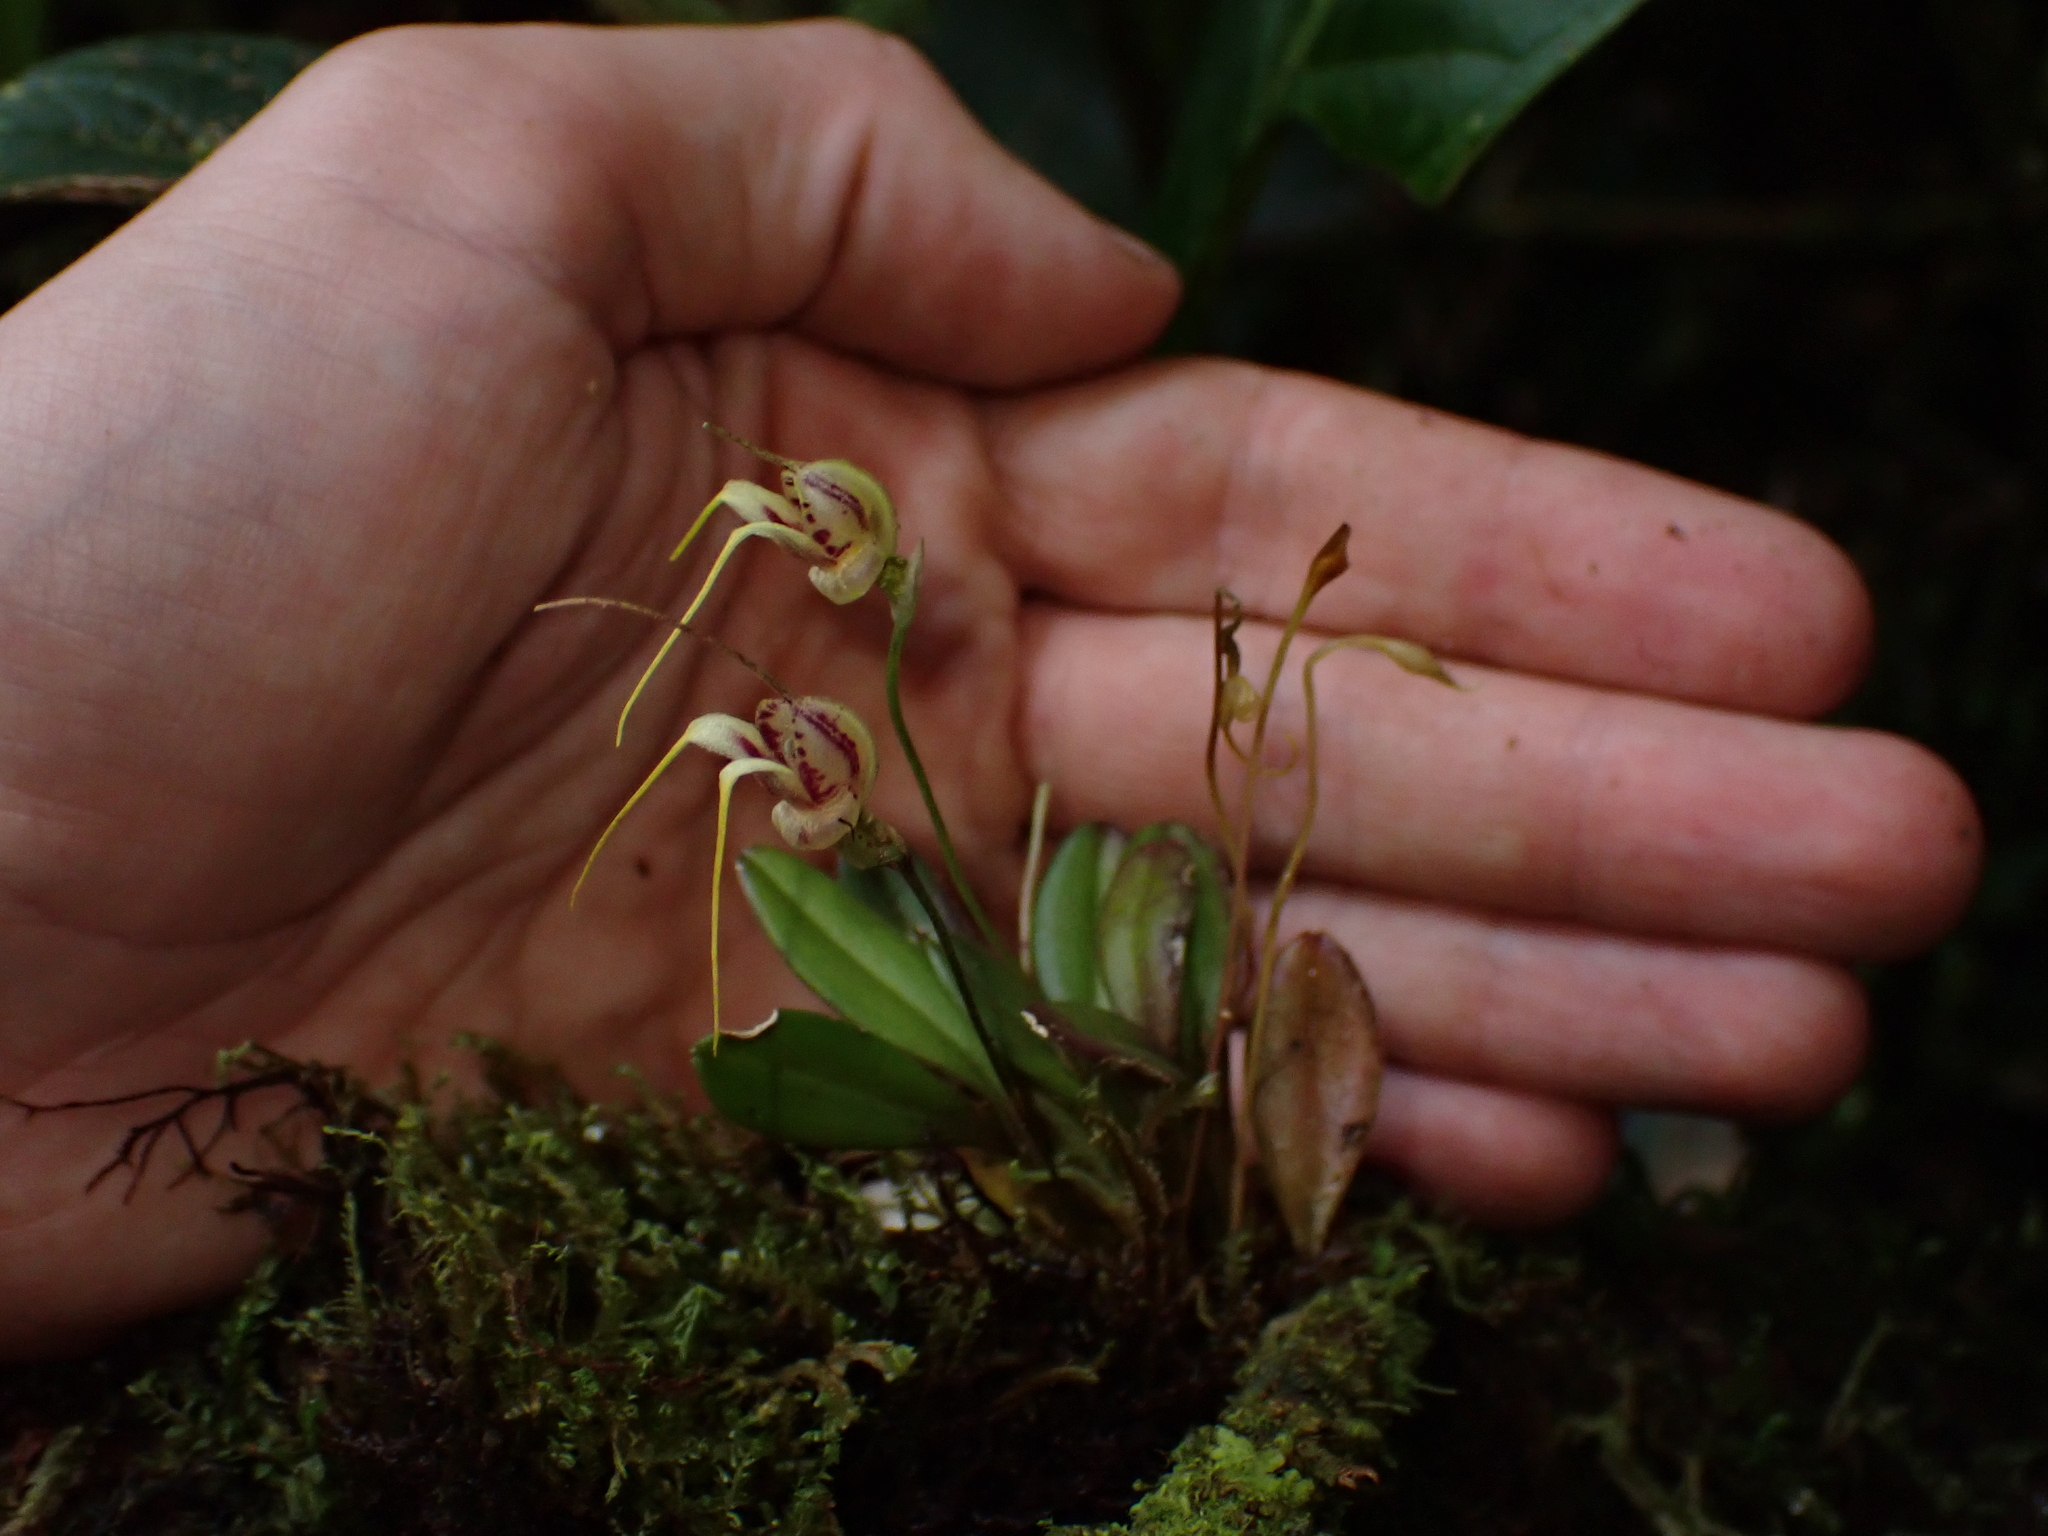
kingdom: Plantae
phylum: Tracheophyta
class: Liliopsida
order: Asparagales
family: Orchidaceae
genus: Masdevallia
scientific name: Masdevallia nidifica
